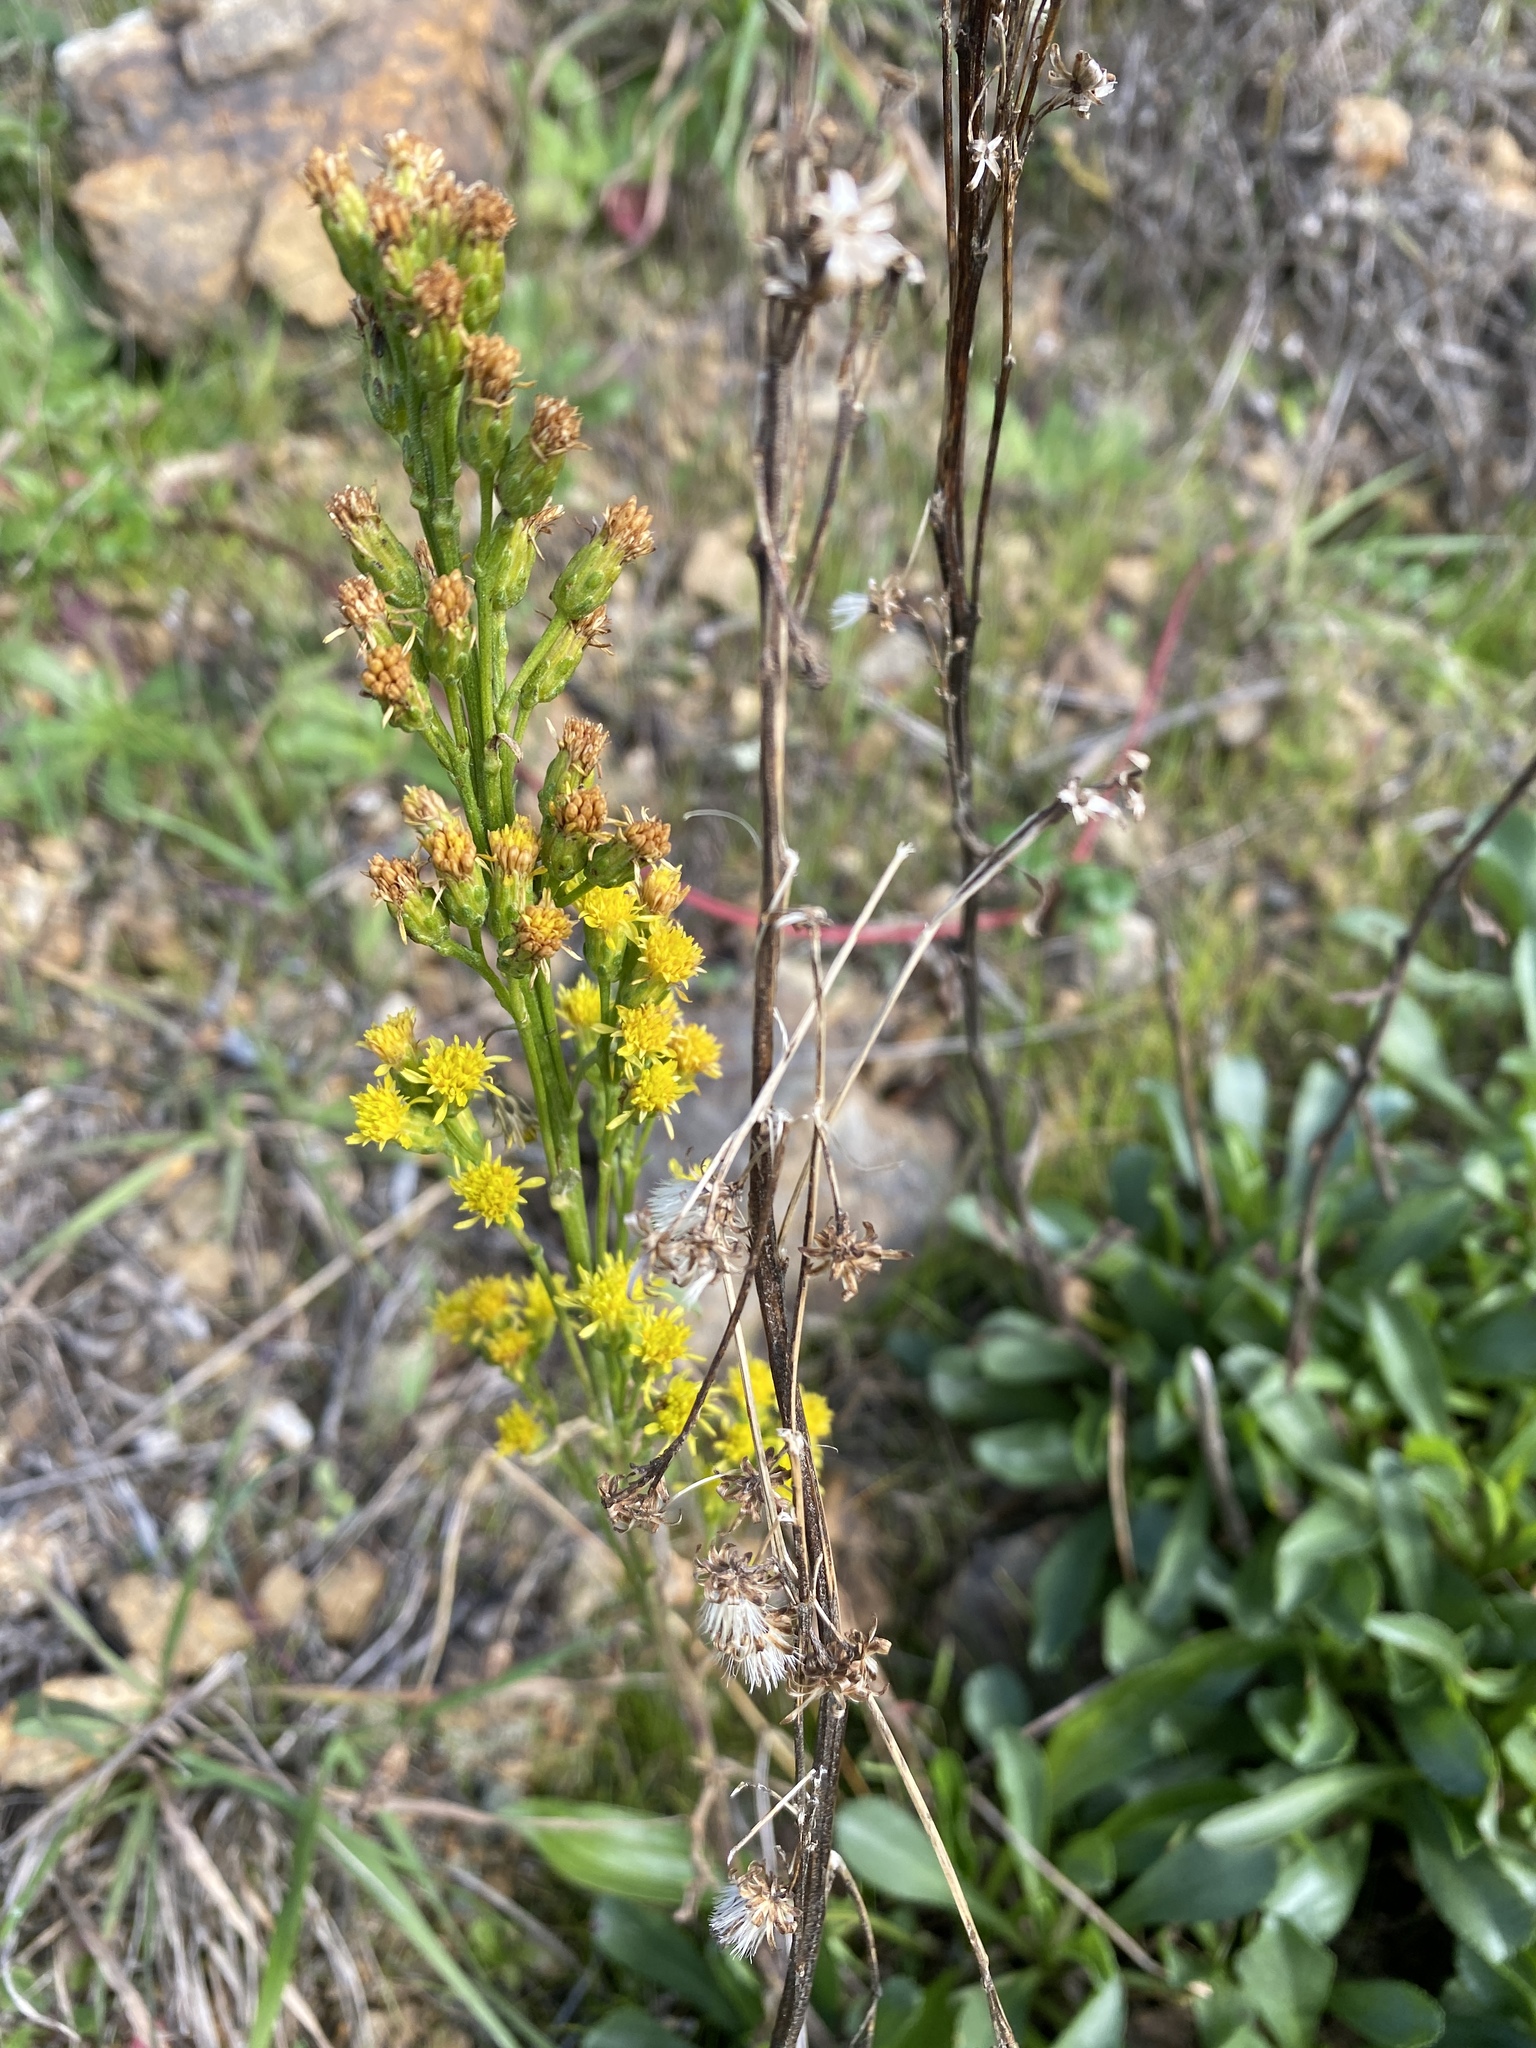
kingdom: Plantae
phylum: Tracheophyta
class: Magnoliopsida
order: Asterales
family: Asteraceae
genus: Solidago
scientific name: Solidago spathulata
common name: Coast goldenrod
